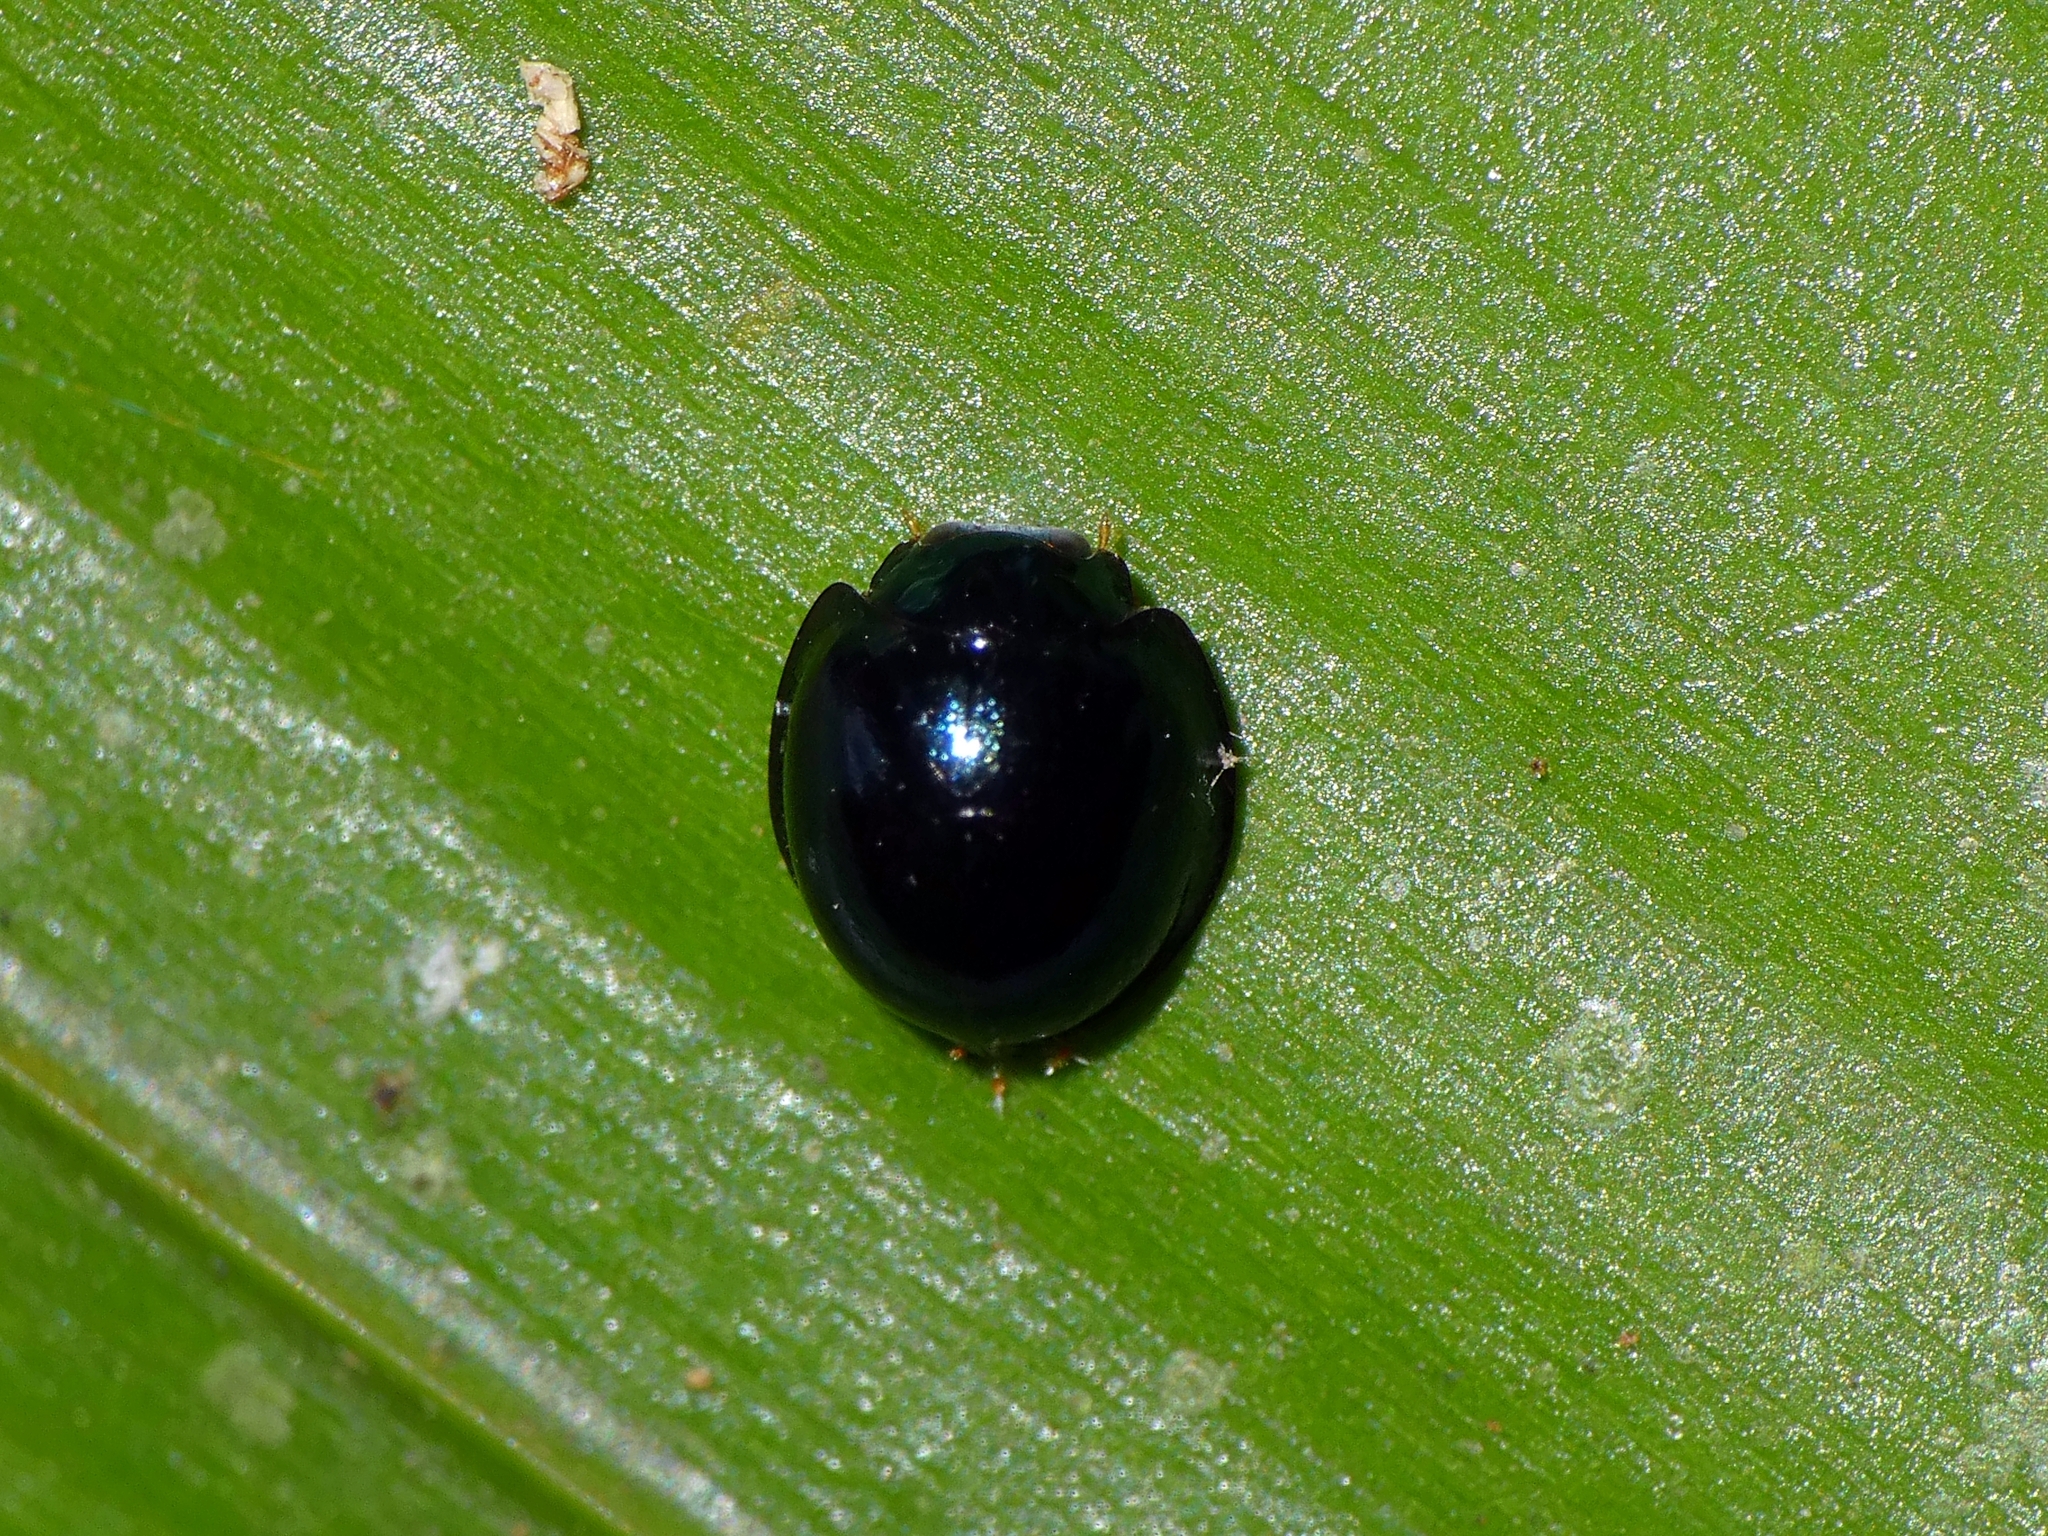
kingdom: Animalia
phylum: Arthropoda
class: Insecta
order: Coleoptera
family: Coccinellidae
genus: Halmus
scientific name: Halmus chalybeus
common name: Steel blue ladybird beetle
